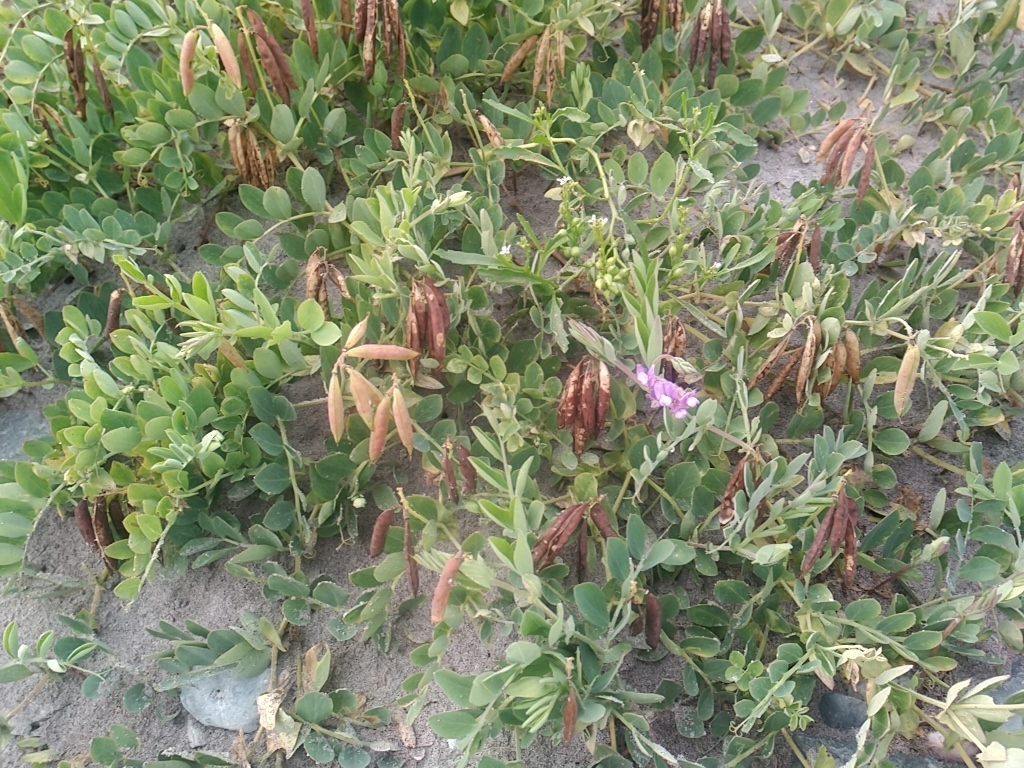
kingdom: Plantae
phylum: Tracheophyta
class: Magnoliopsida
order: Fabales
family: Fabaceae
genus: Lathyrus
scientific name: Lathyrus japonicus
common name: Sea pea
